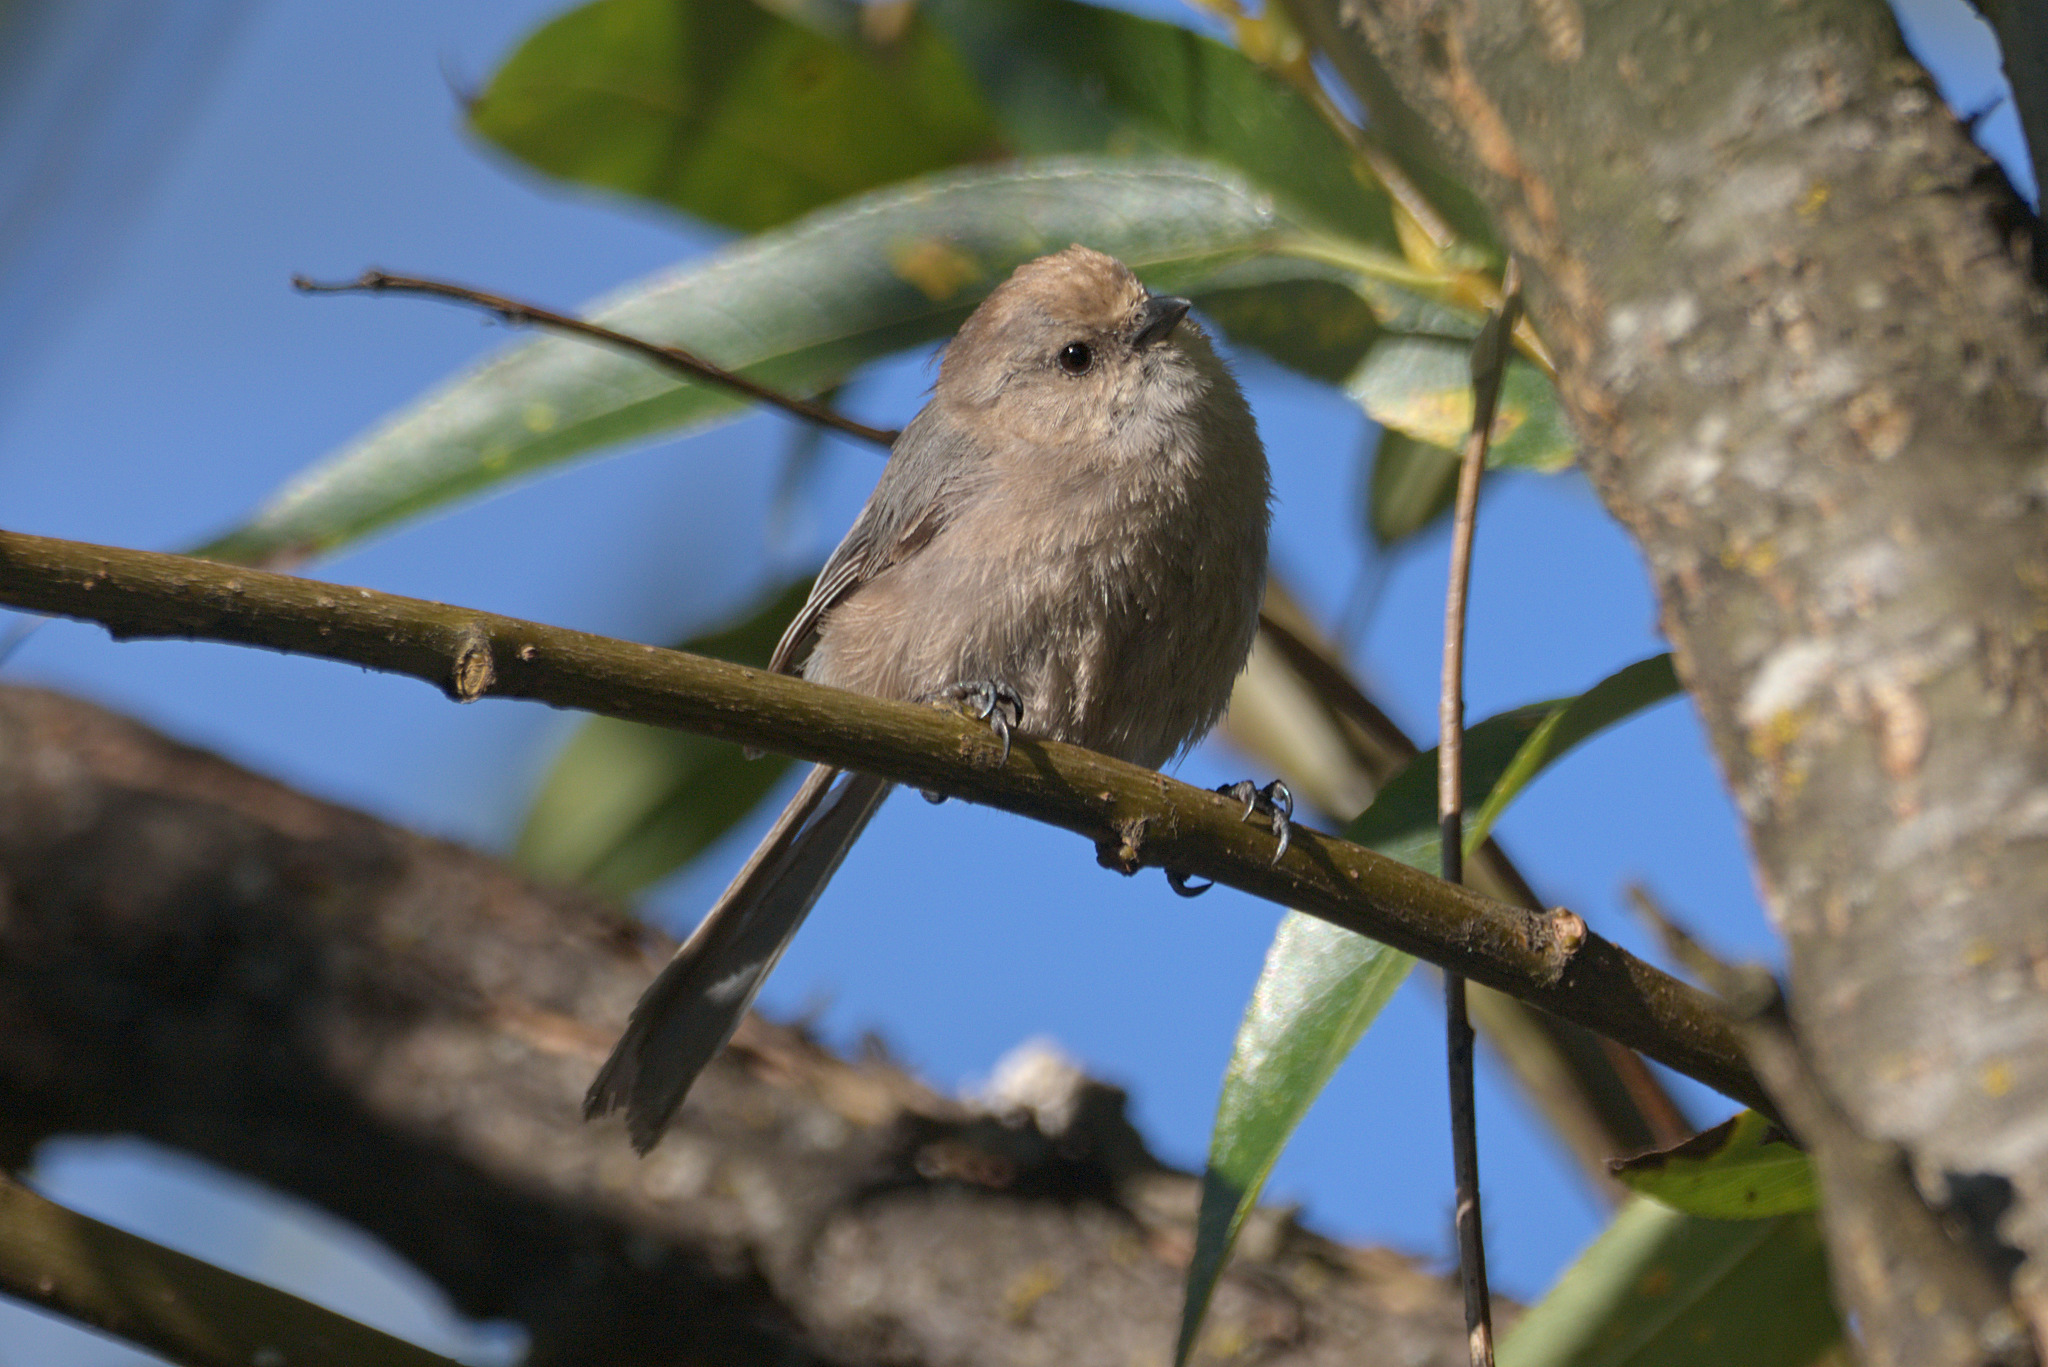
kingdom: Animalia
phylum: Chordata
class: Aves
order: Passeriformes
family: Aegithalidae
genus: Psaltriparus
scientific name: Psaltriparus minimus
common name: American bushtit
